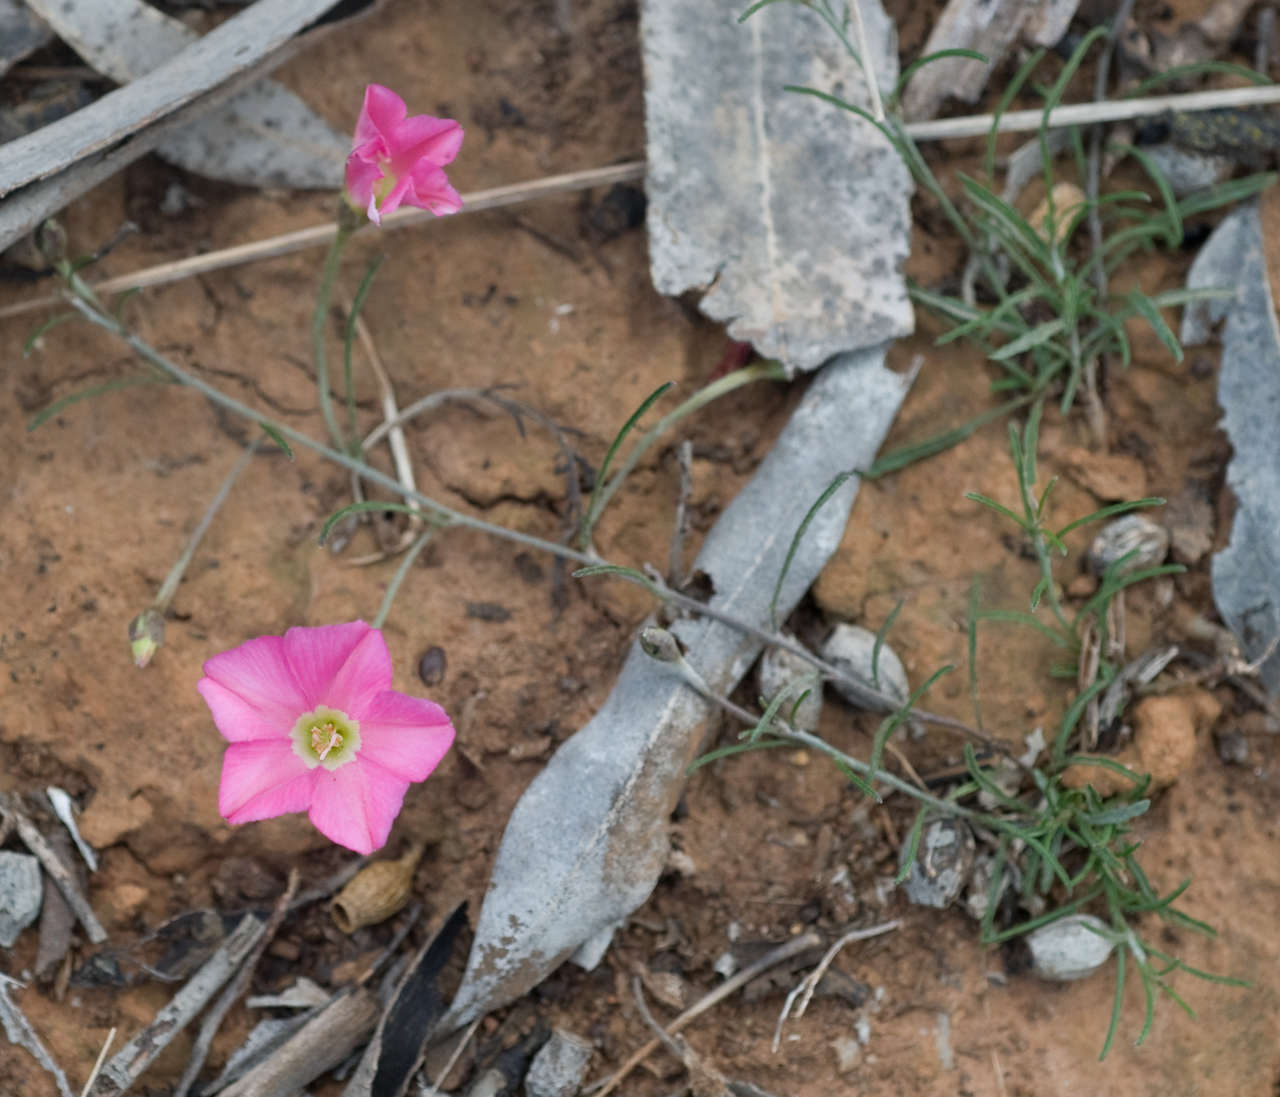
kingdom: Plantae
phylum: Tracheophyta
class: Magnoliopsida
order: Solanales
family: Convolvulaceae
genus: Convolvulus
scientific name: Convolvulus angustissimus
